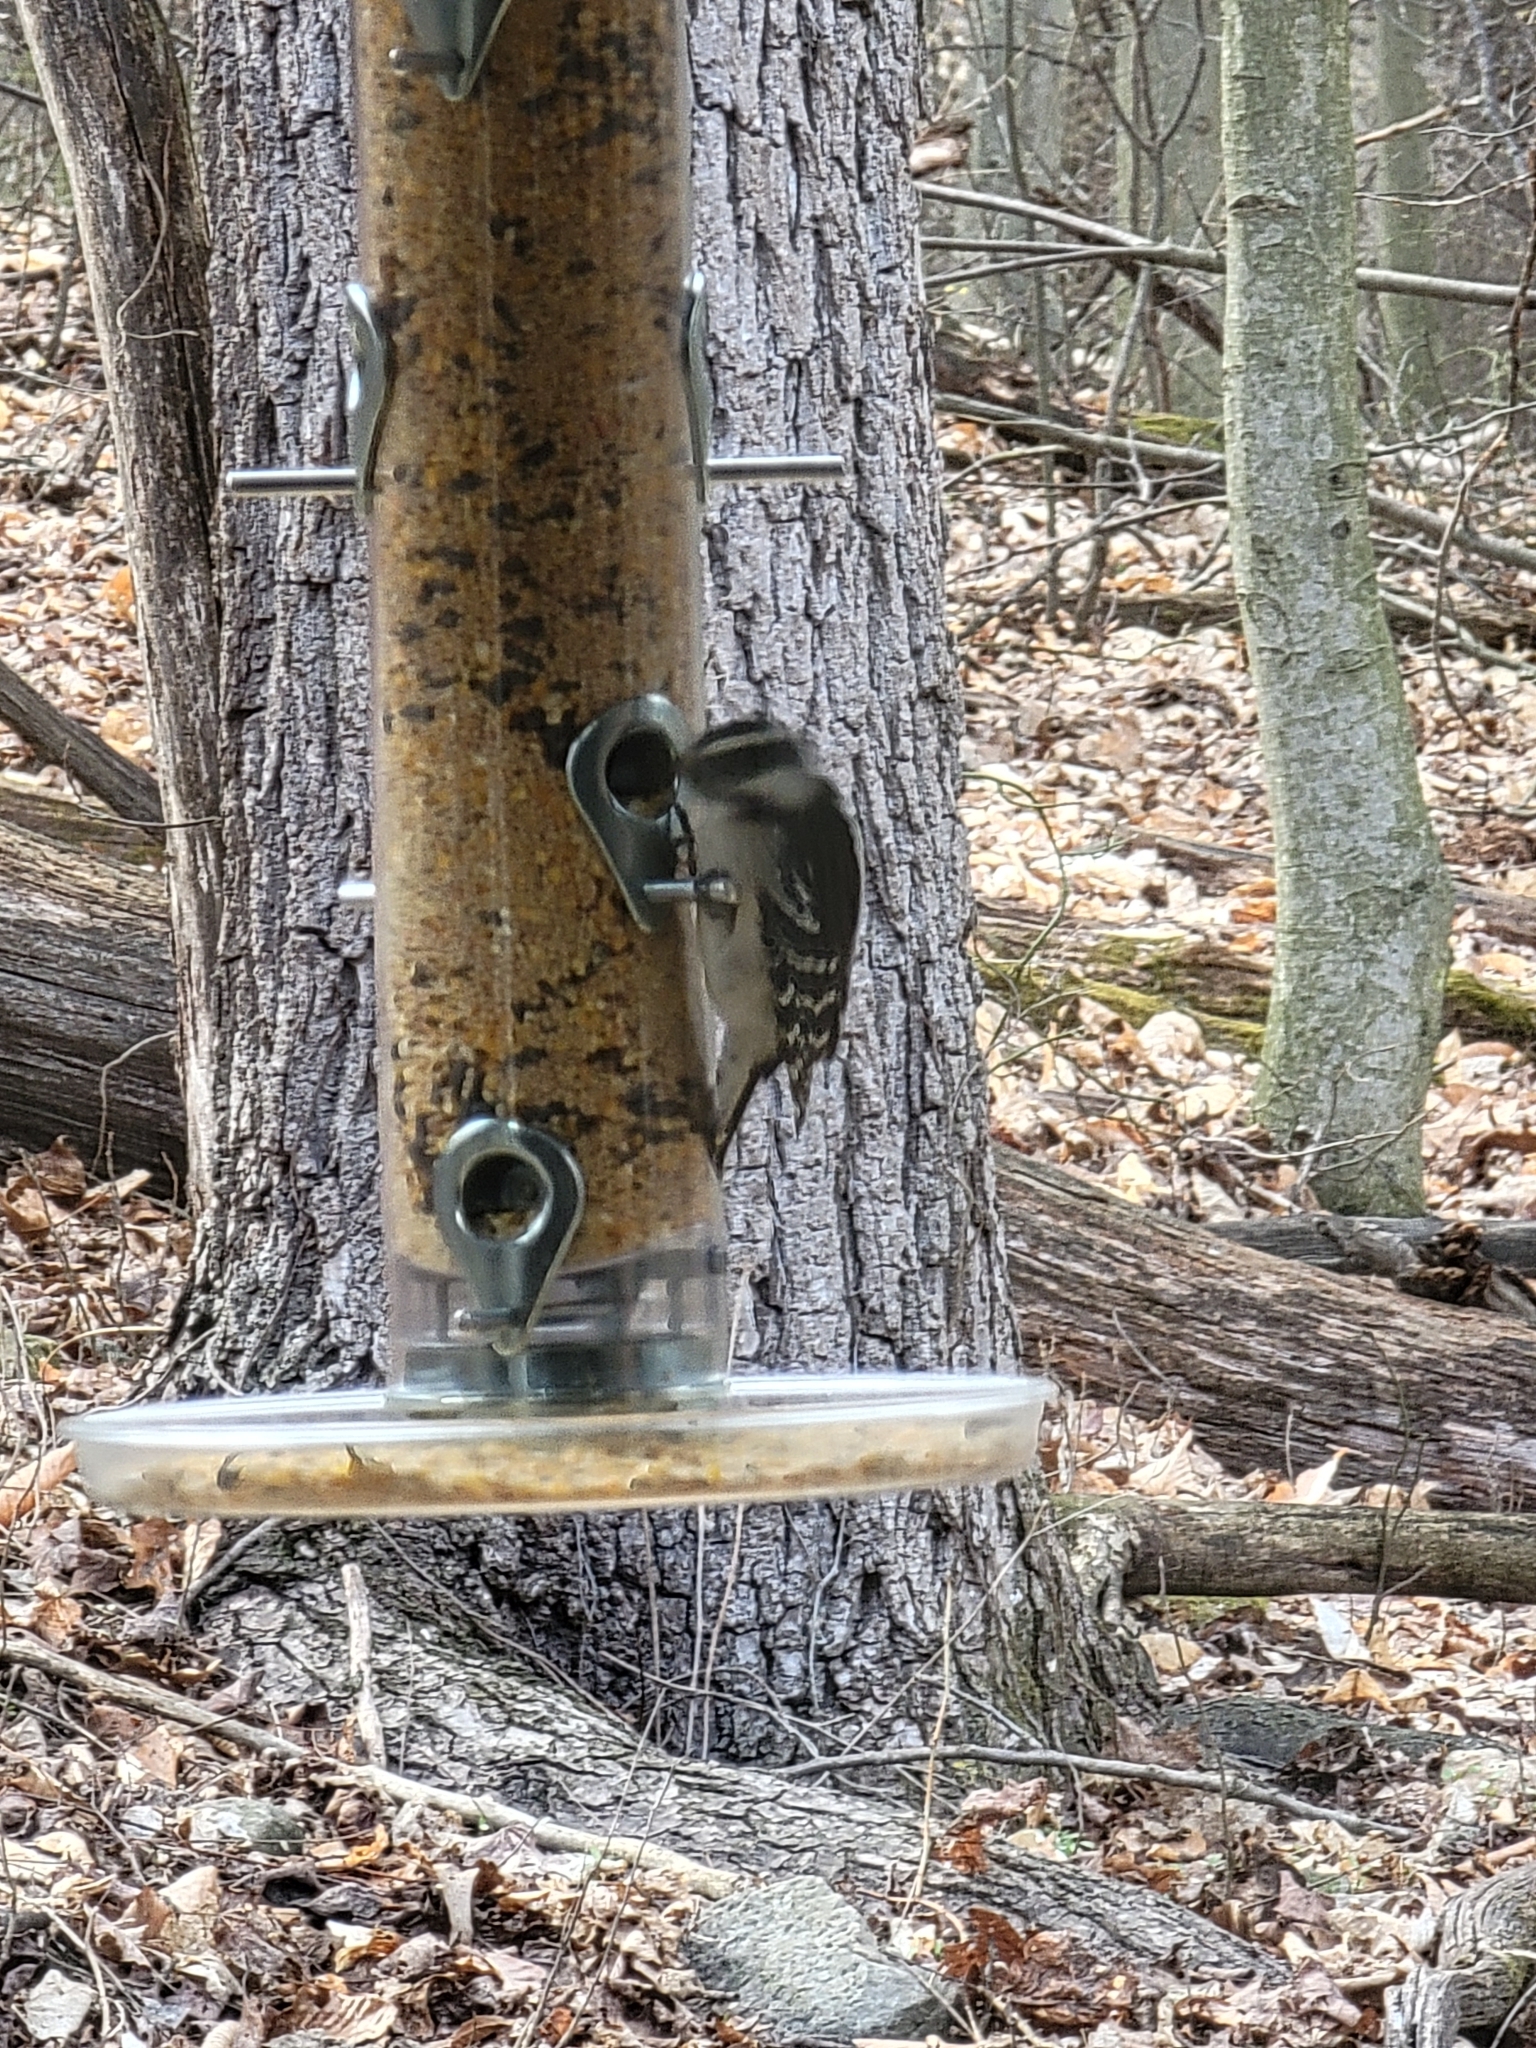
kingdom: Animalia
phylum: Chordata
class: Aves
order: Piciformes
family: Picidae
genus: Dryobates
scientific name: Dryobates pubescens
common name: Downy woodpecker
